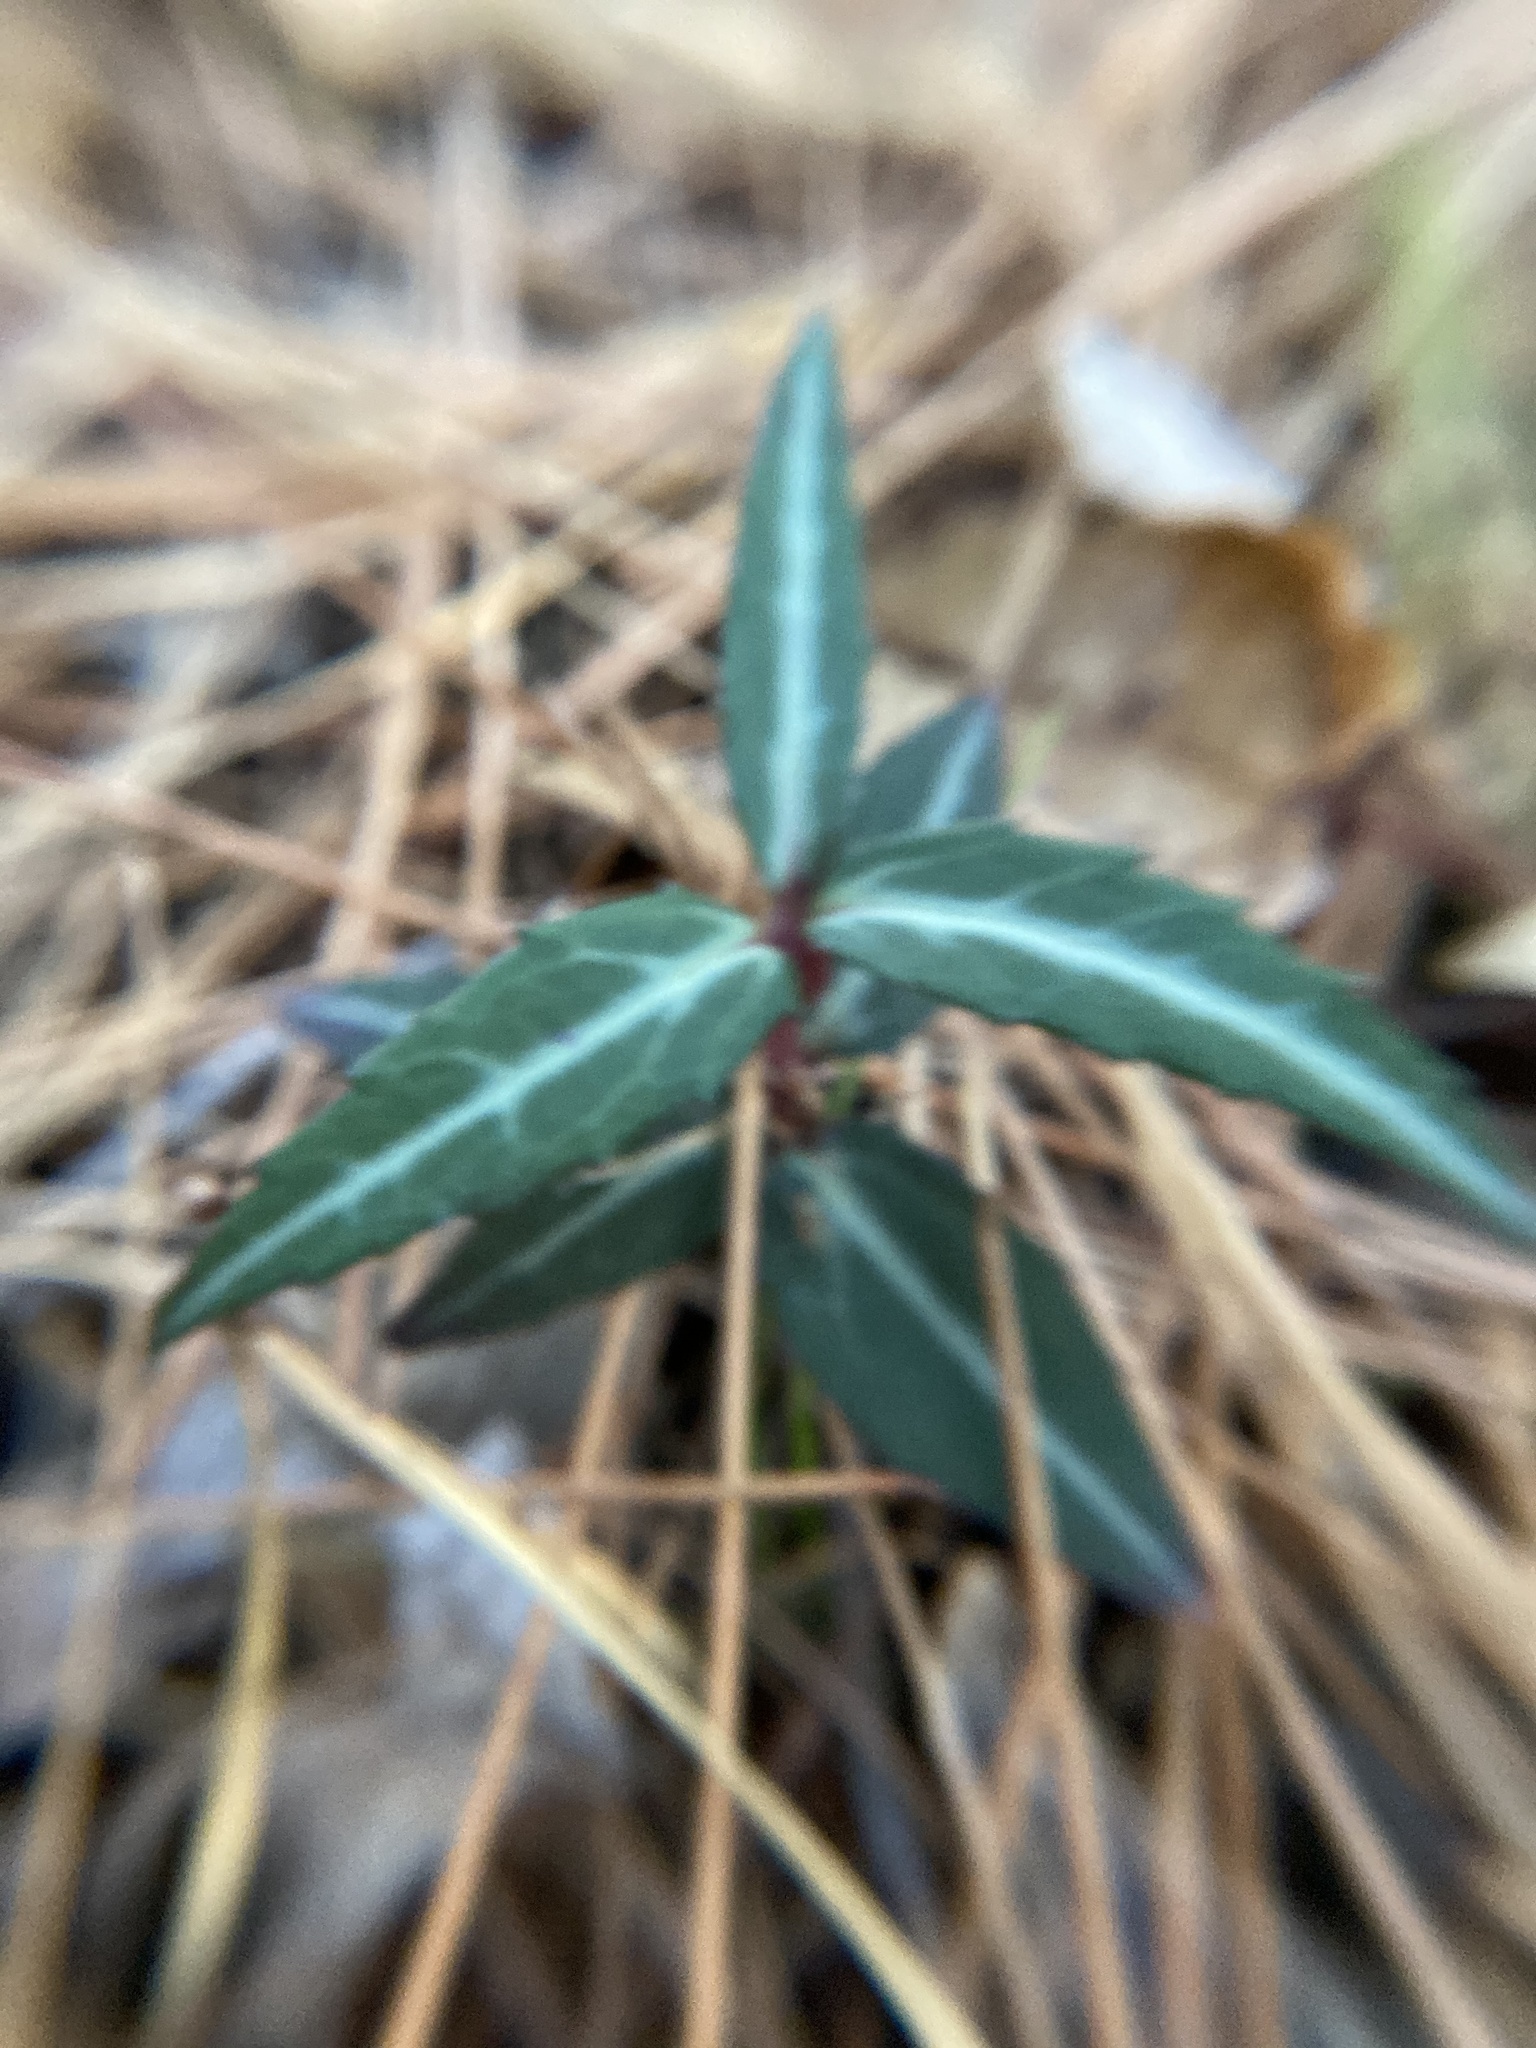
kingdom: Plantae
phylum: Tracheophyta
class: Magnoliopsida
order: Ericales
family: Ericaceae
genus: Chimaphila
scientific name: Chimaphila maculata
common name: Spotted pipsissewa
